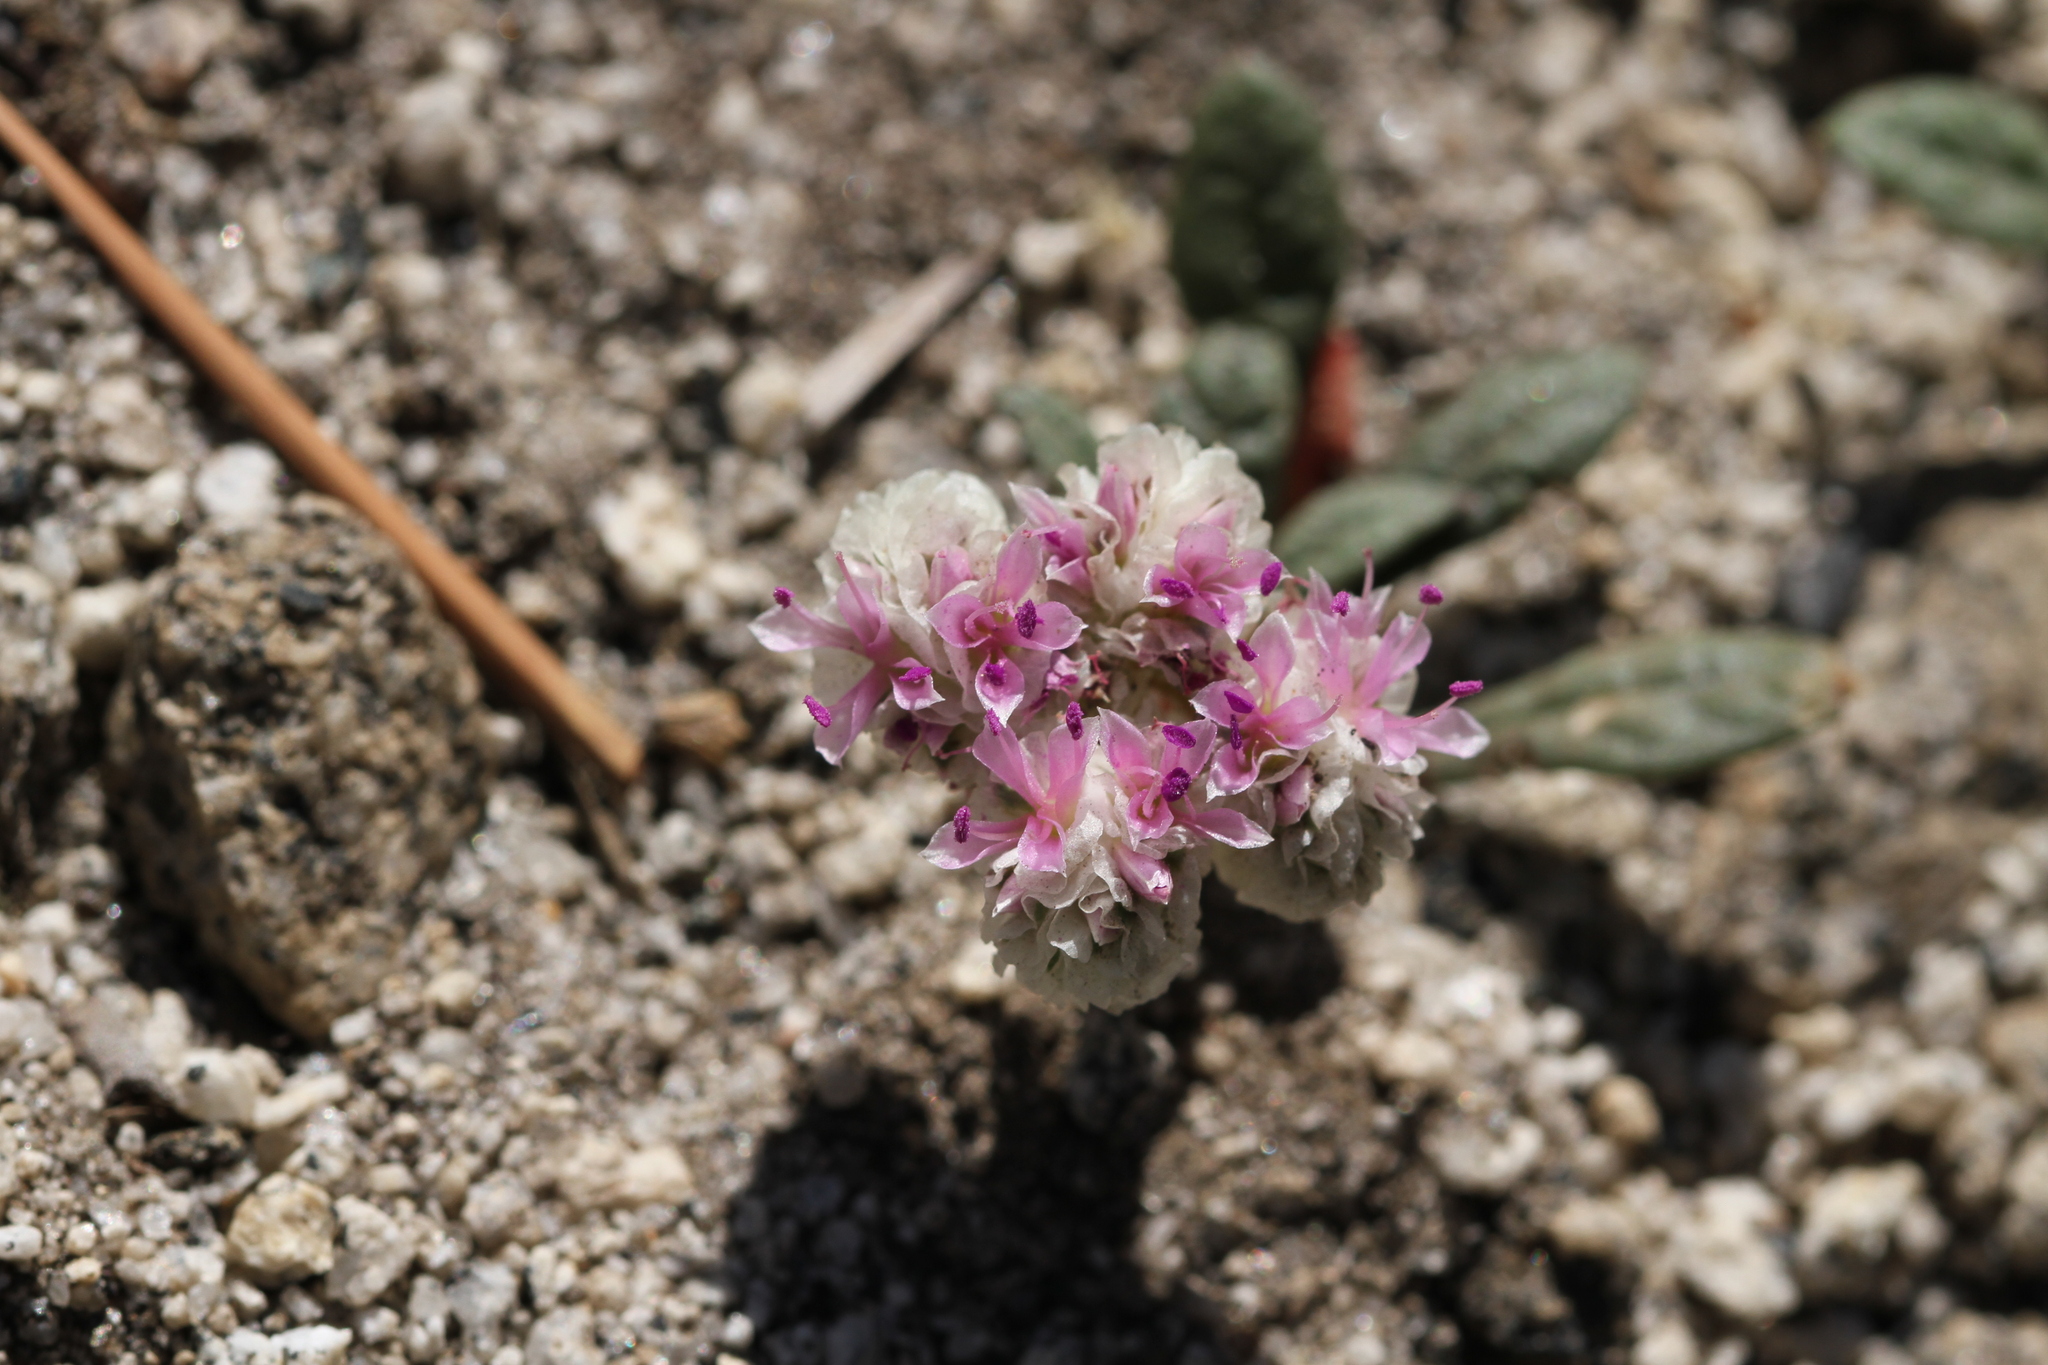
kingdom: Plantae
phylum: Tracheophyta
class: Magnoliopsida
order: Caryophyllales
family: Montiaceae
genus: Calyptridium
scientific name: Calyptridium monospermum
